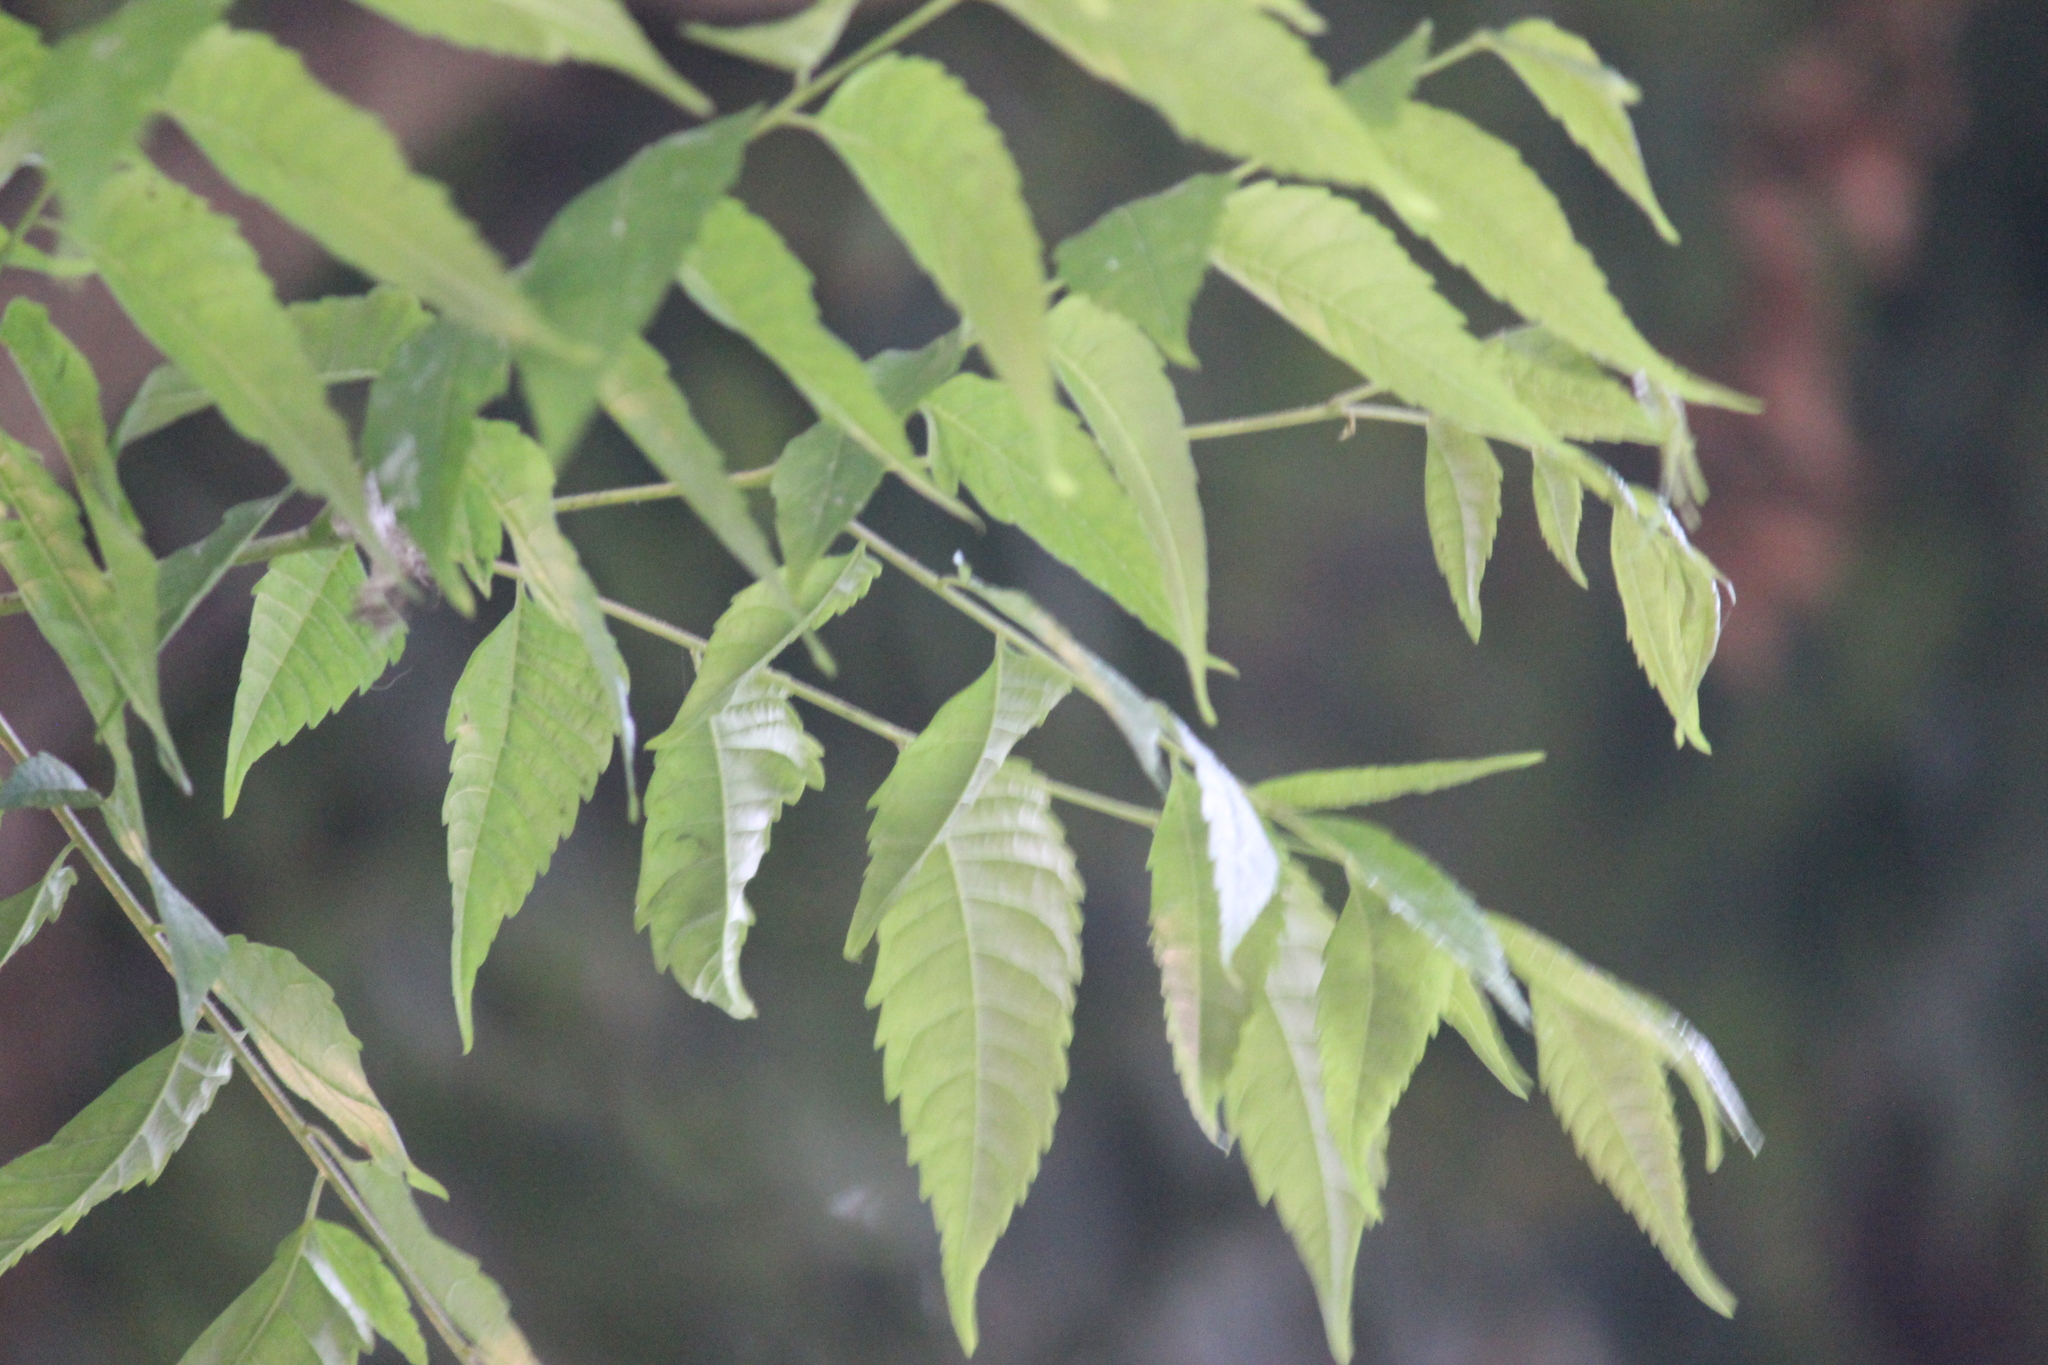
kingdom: Plantae
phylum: Tracheophyta
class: Magnoliopsida
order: Sapindales
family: Meliaceae
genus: Azadirachta
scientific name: Azadirachta indica
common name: Neem
